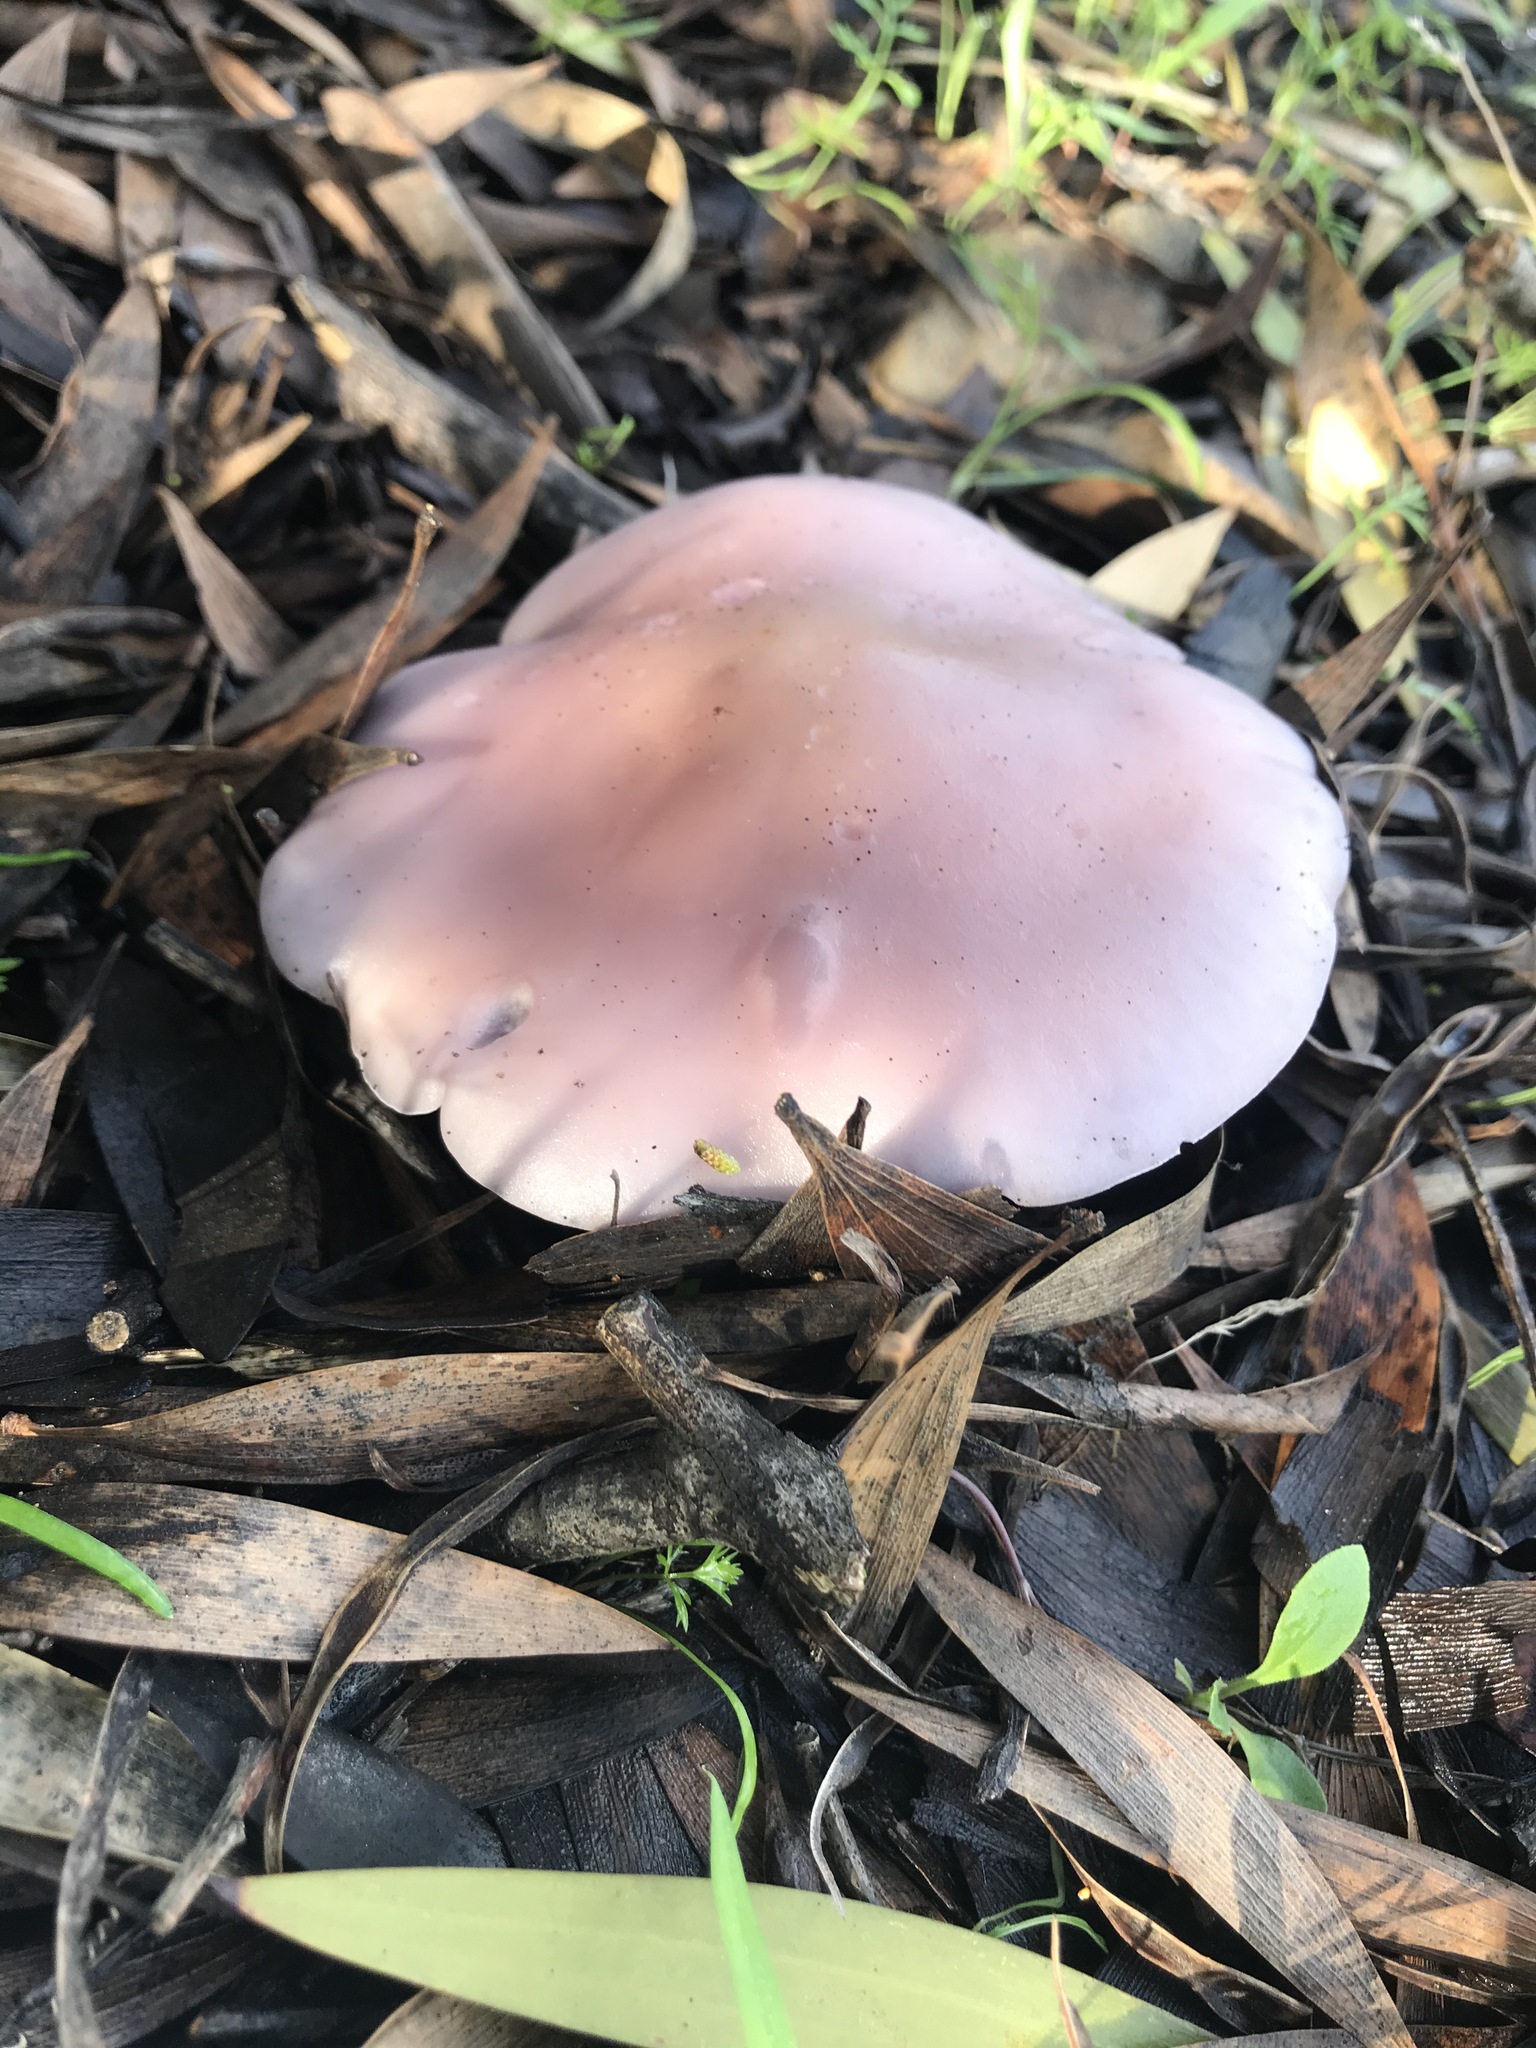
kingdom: Fungi
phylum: Basidiomycota
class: Agaricomycetes
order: Agaricales
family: Tricholomataceae
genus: Collybia
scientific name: Collybia
